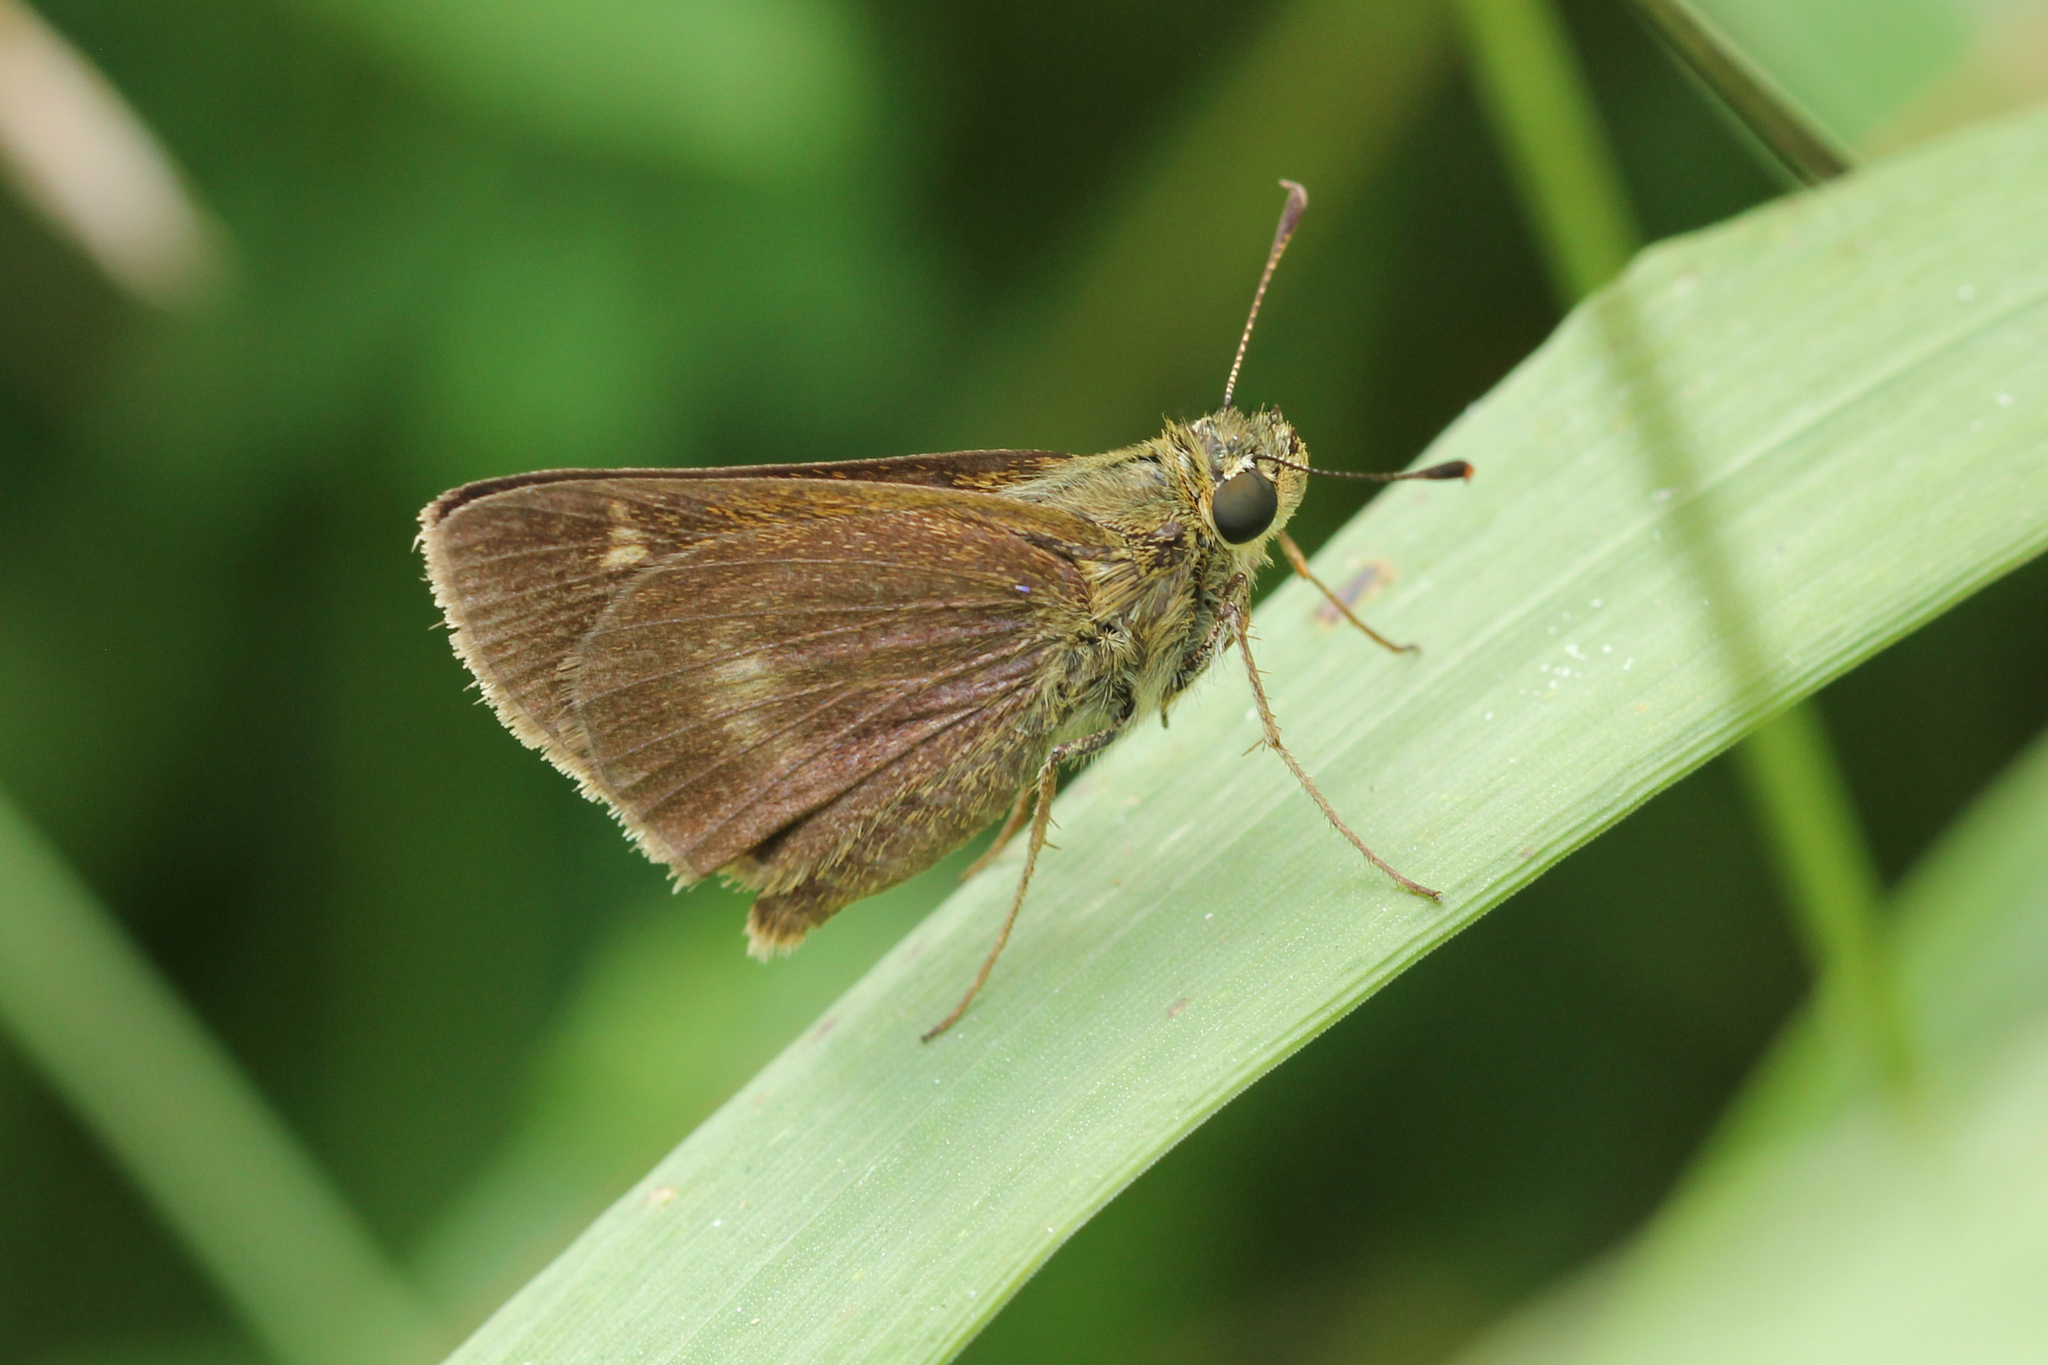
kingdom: Animalia
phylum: Arthropoda
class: Insecta
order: Lepidoptera
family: Hesperiidae
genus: Polites
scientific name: Polites egeremet
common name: Northern broken-dash
